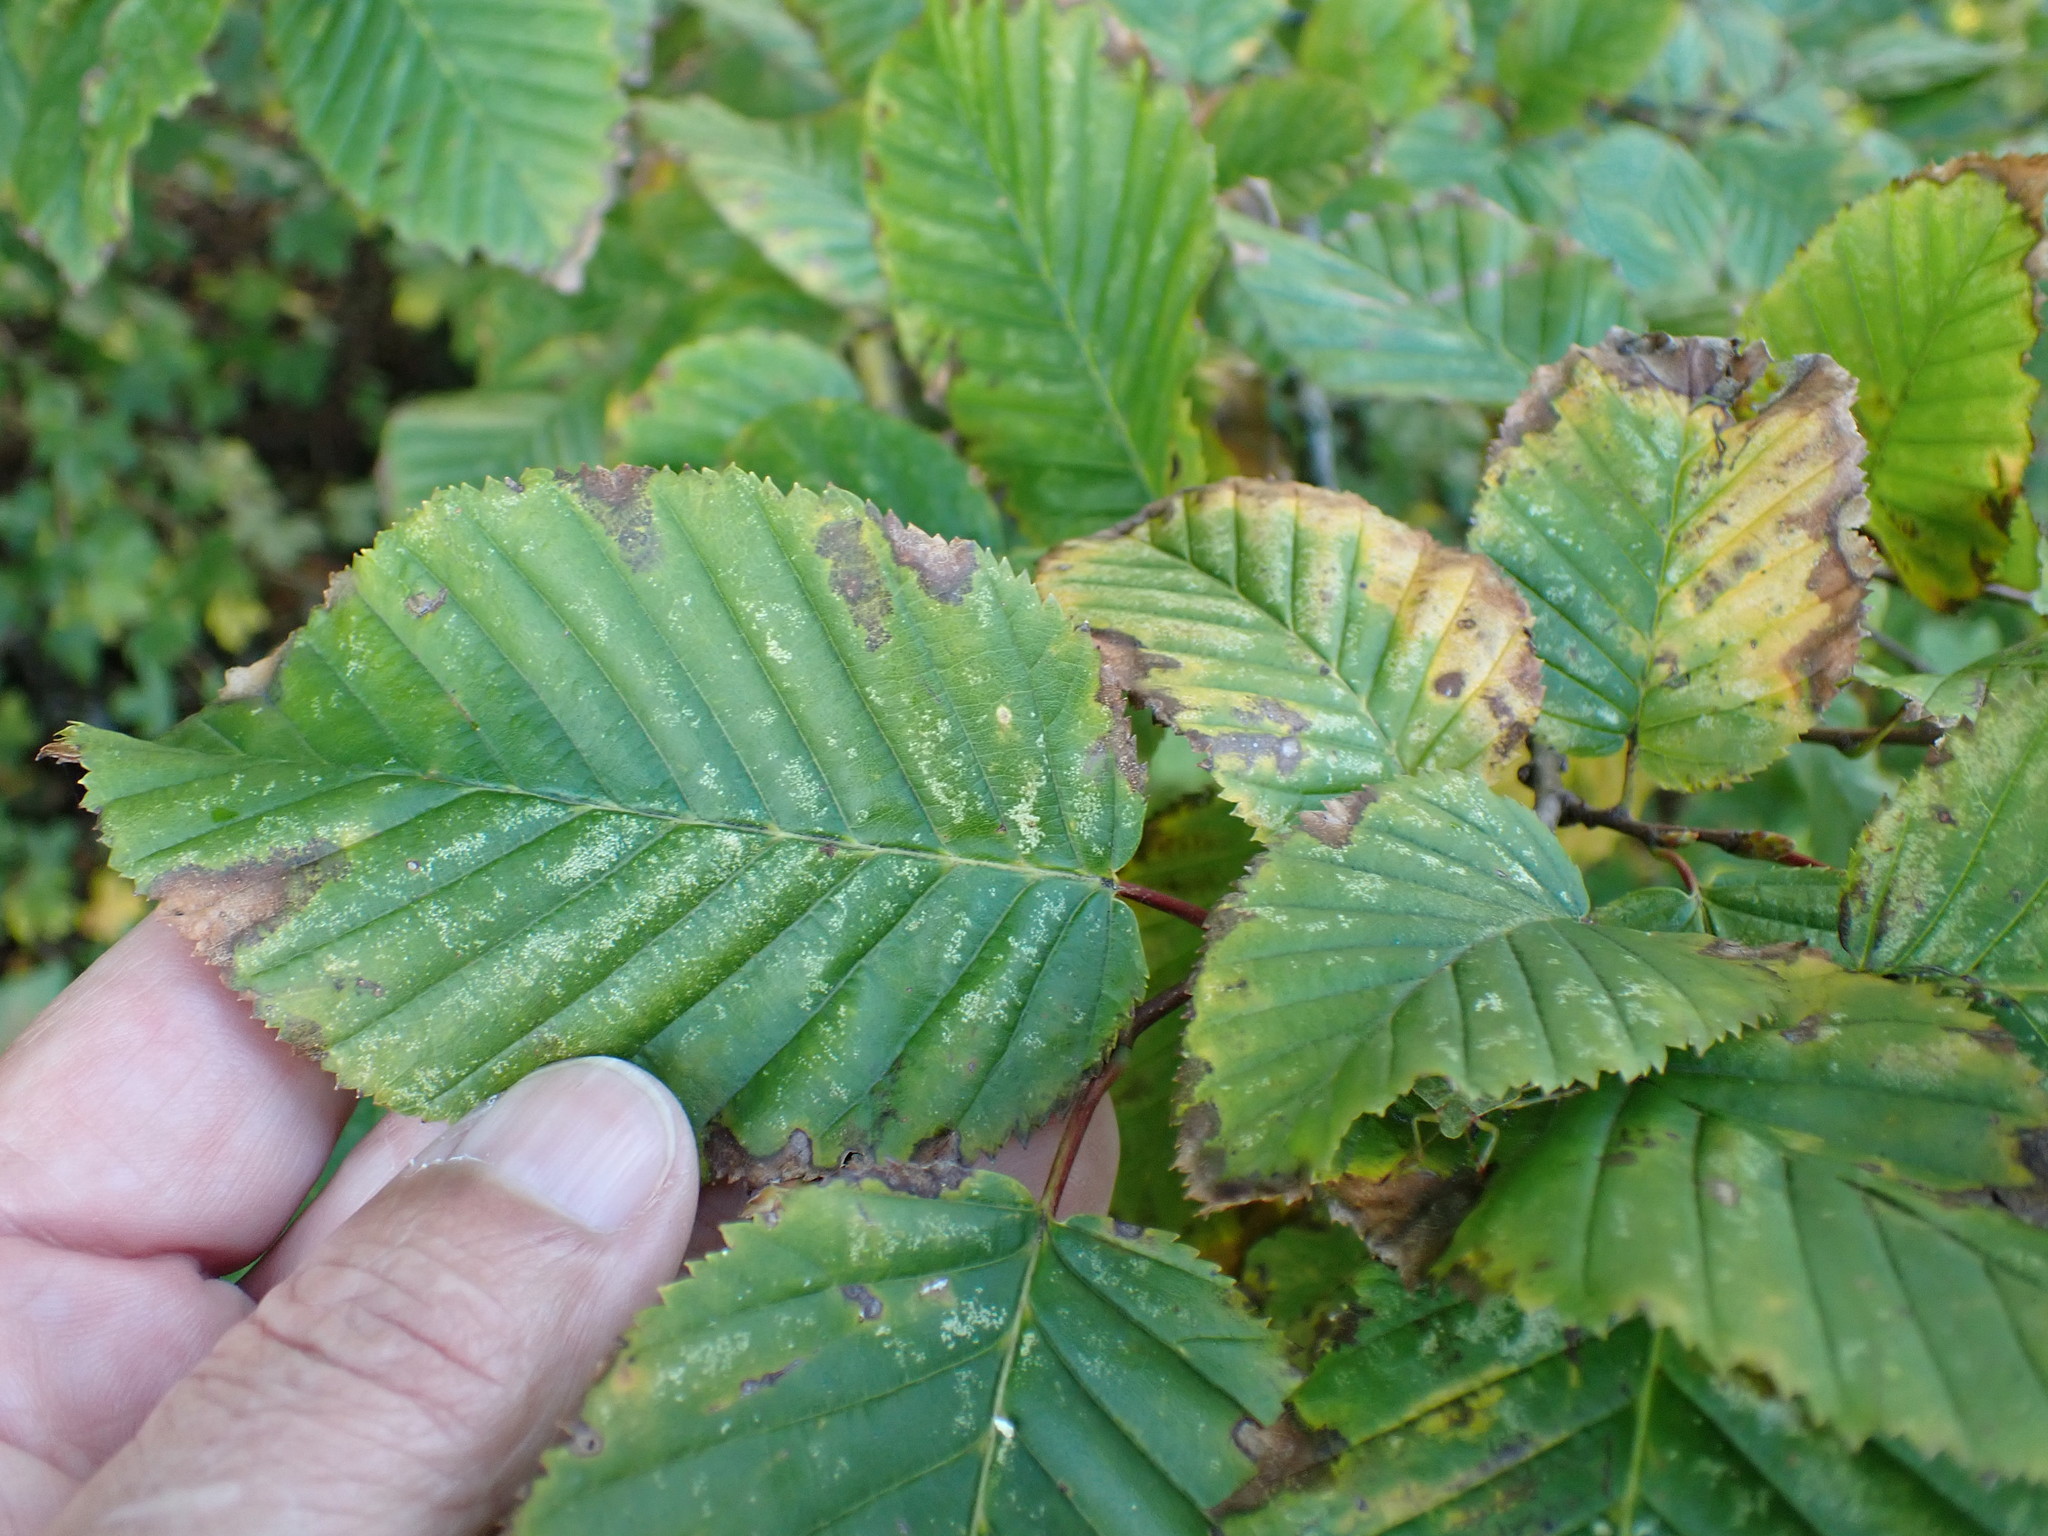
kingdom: Plantae
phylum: Tracheophyta
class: Magnoliopsida
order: Fagales
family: Betulaceae
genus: Carpinus
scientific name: Carpinus betulus
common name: Hornbeam
